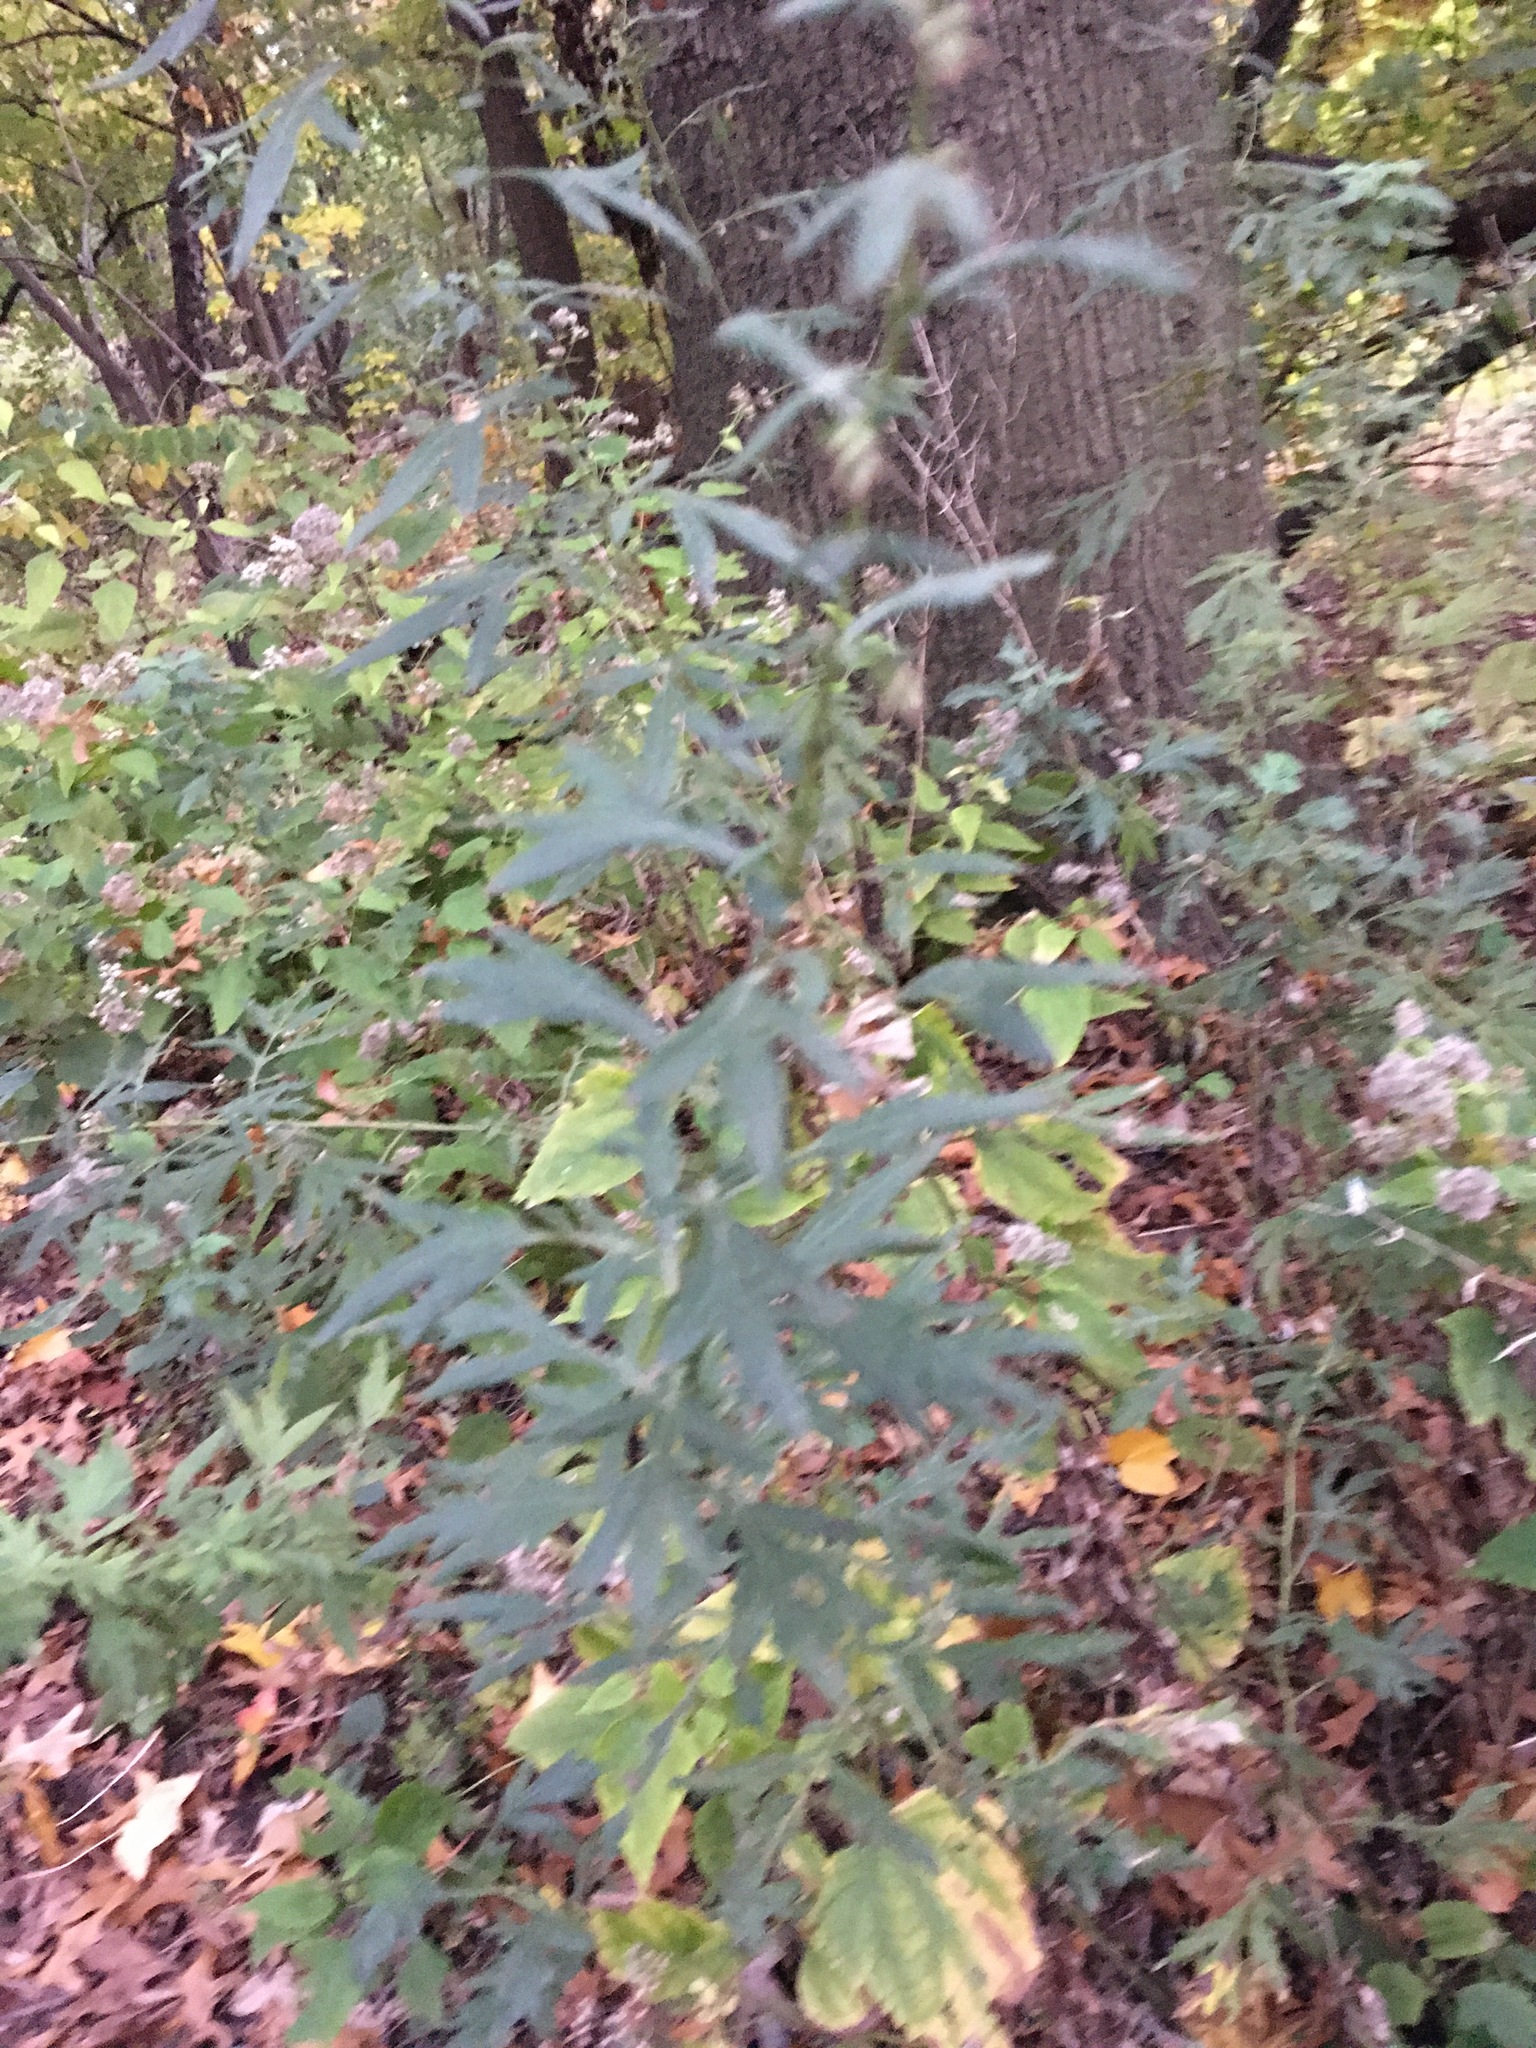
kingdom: Plantae
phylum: Tracheophyta
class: Magnoliopsida
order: Asterales
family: Asteraceae
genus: Artemisia
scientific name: Artemisia vulgaris
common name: Mugwort
